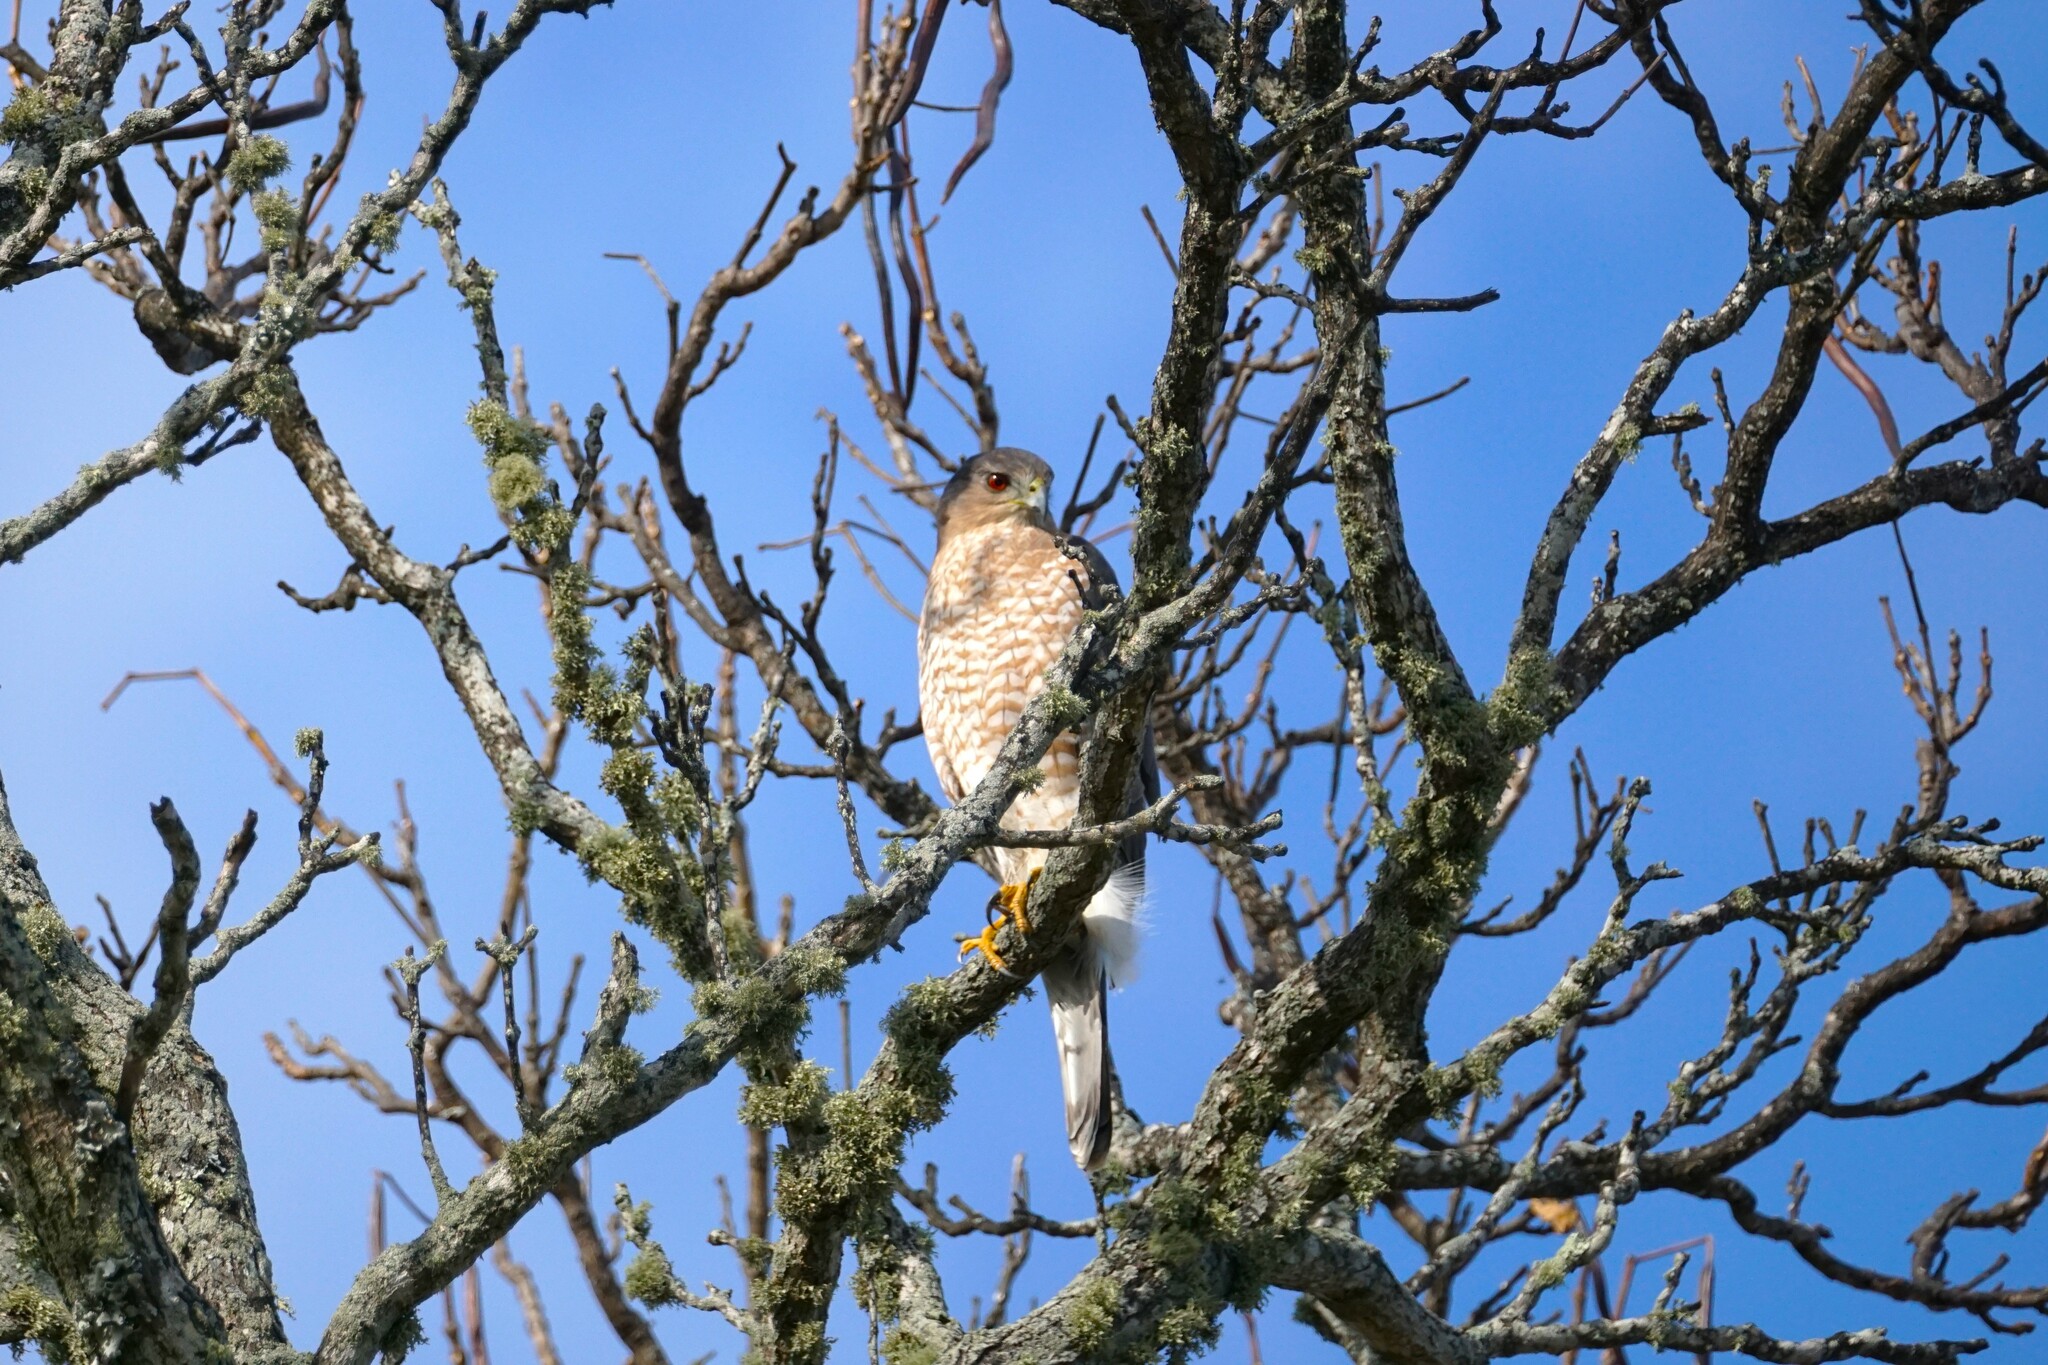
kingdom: Animalia
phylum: Chordata
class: Aves
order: Accipitriformes
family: Accipitridae
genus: Accipiter
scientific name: Accipiter cooperii
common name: Cooper's hawk
